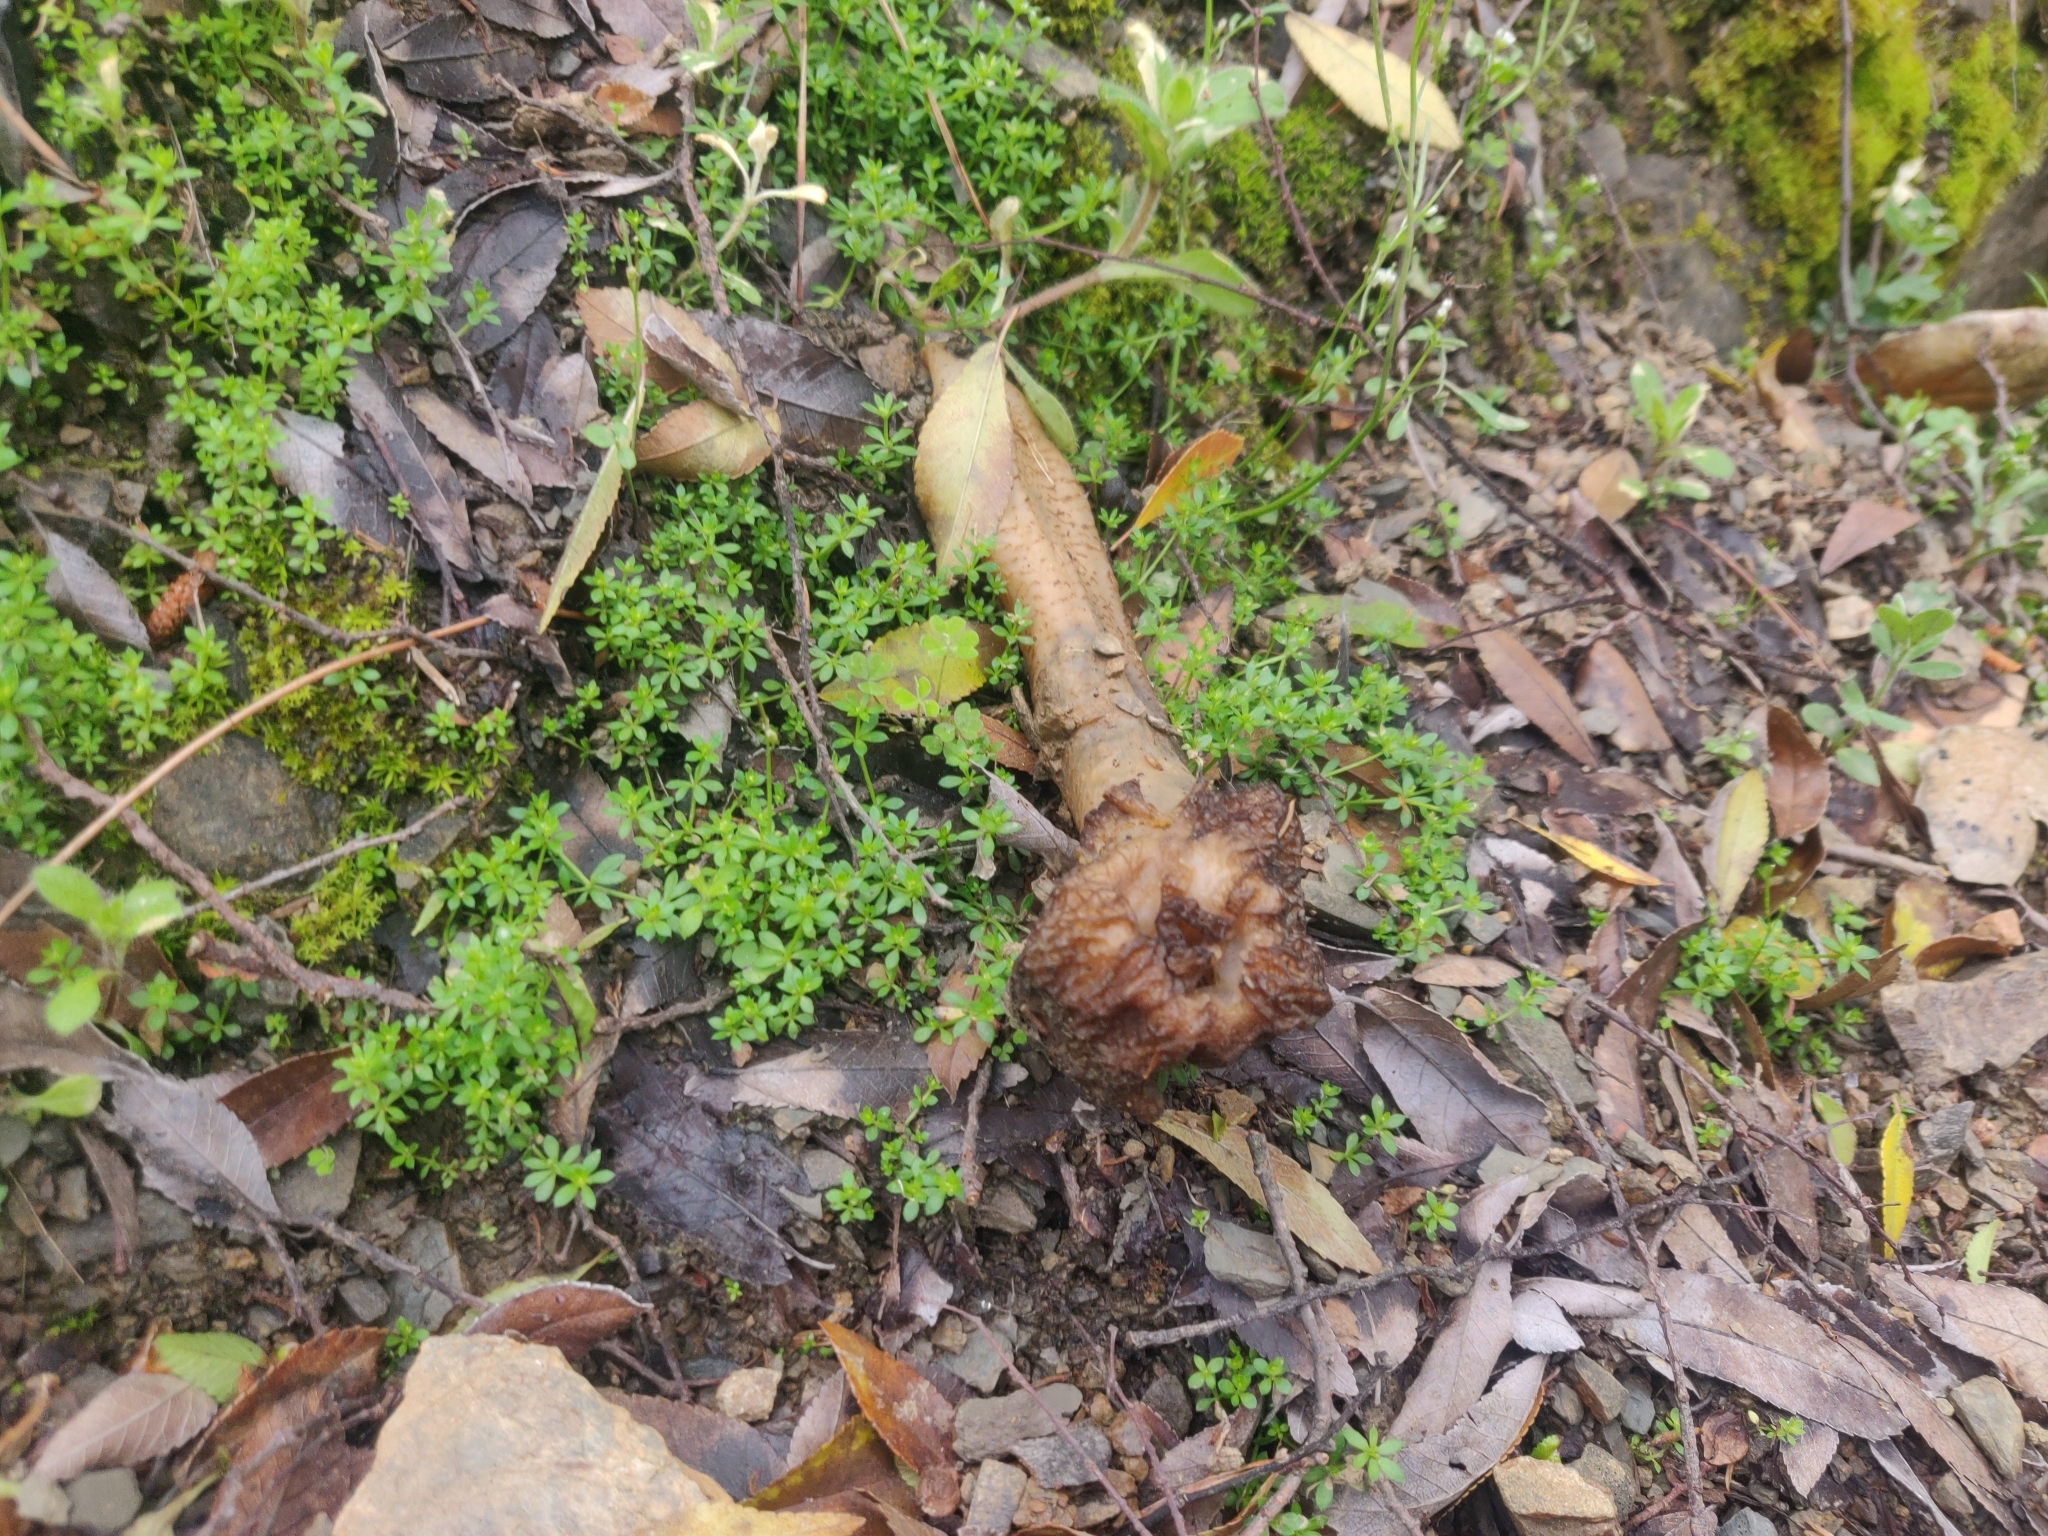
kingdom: Fungi
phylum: Ascomycota
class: Pezizomycetes
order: Pezizales
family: Morchellaceae
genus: Verpa
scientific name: Verpa conica
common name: Thimble morel
